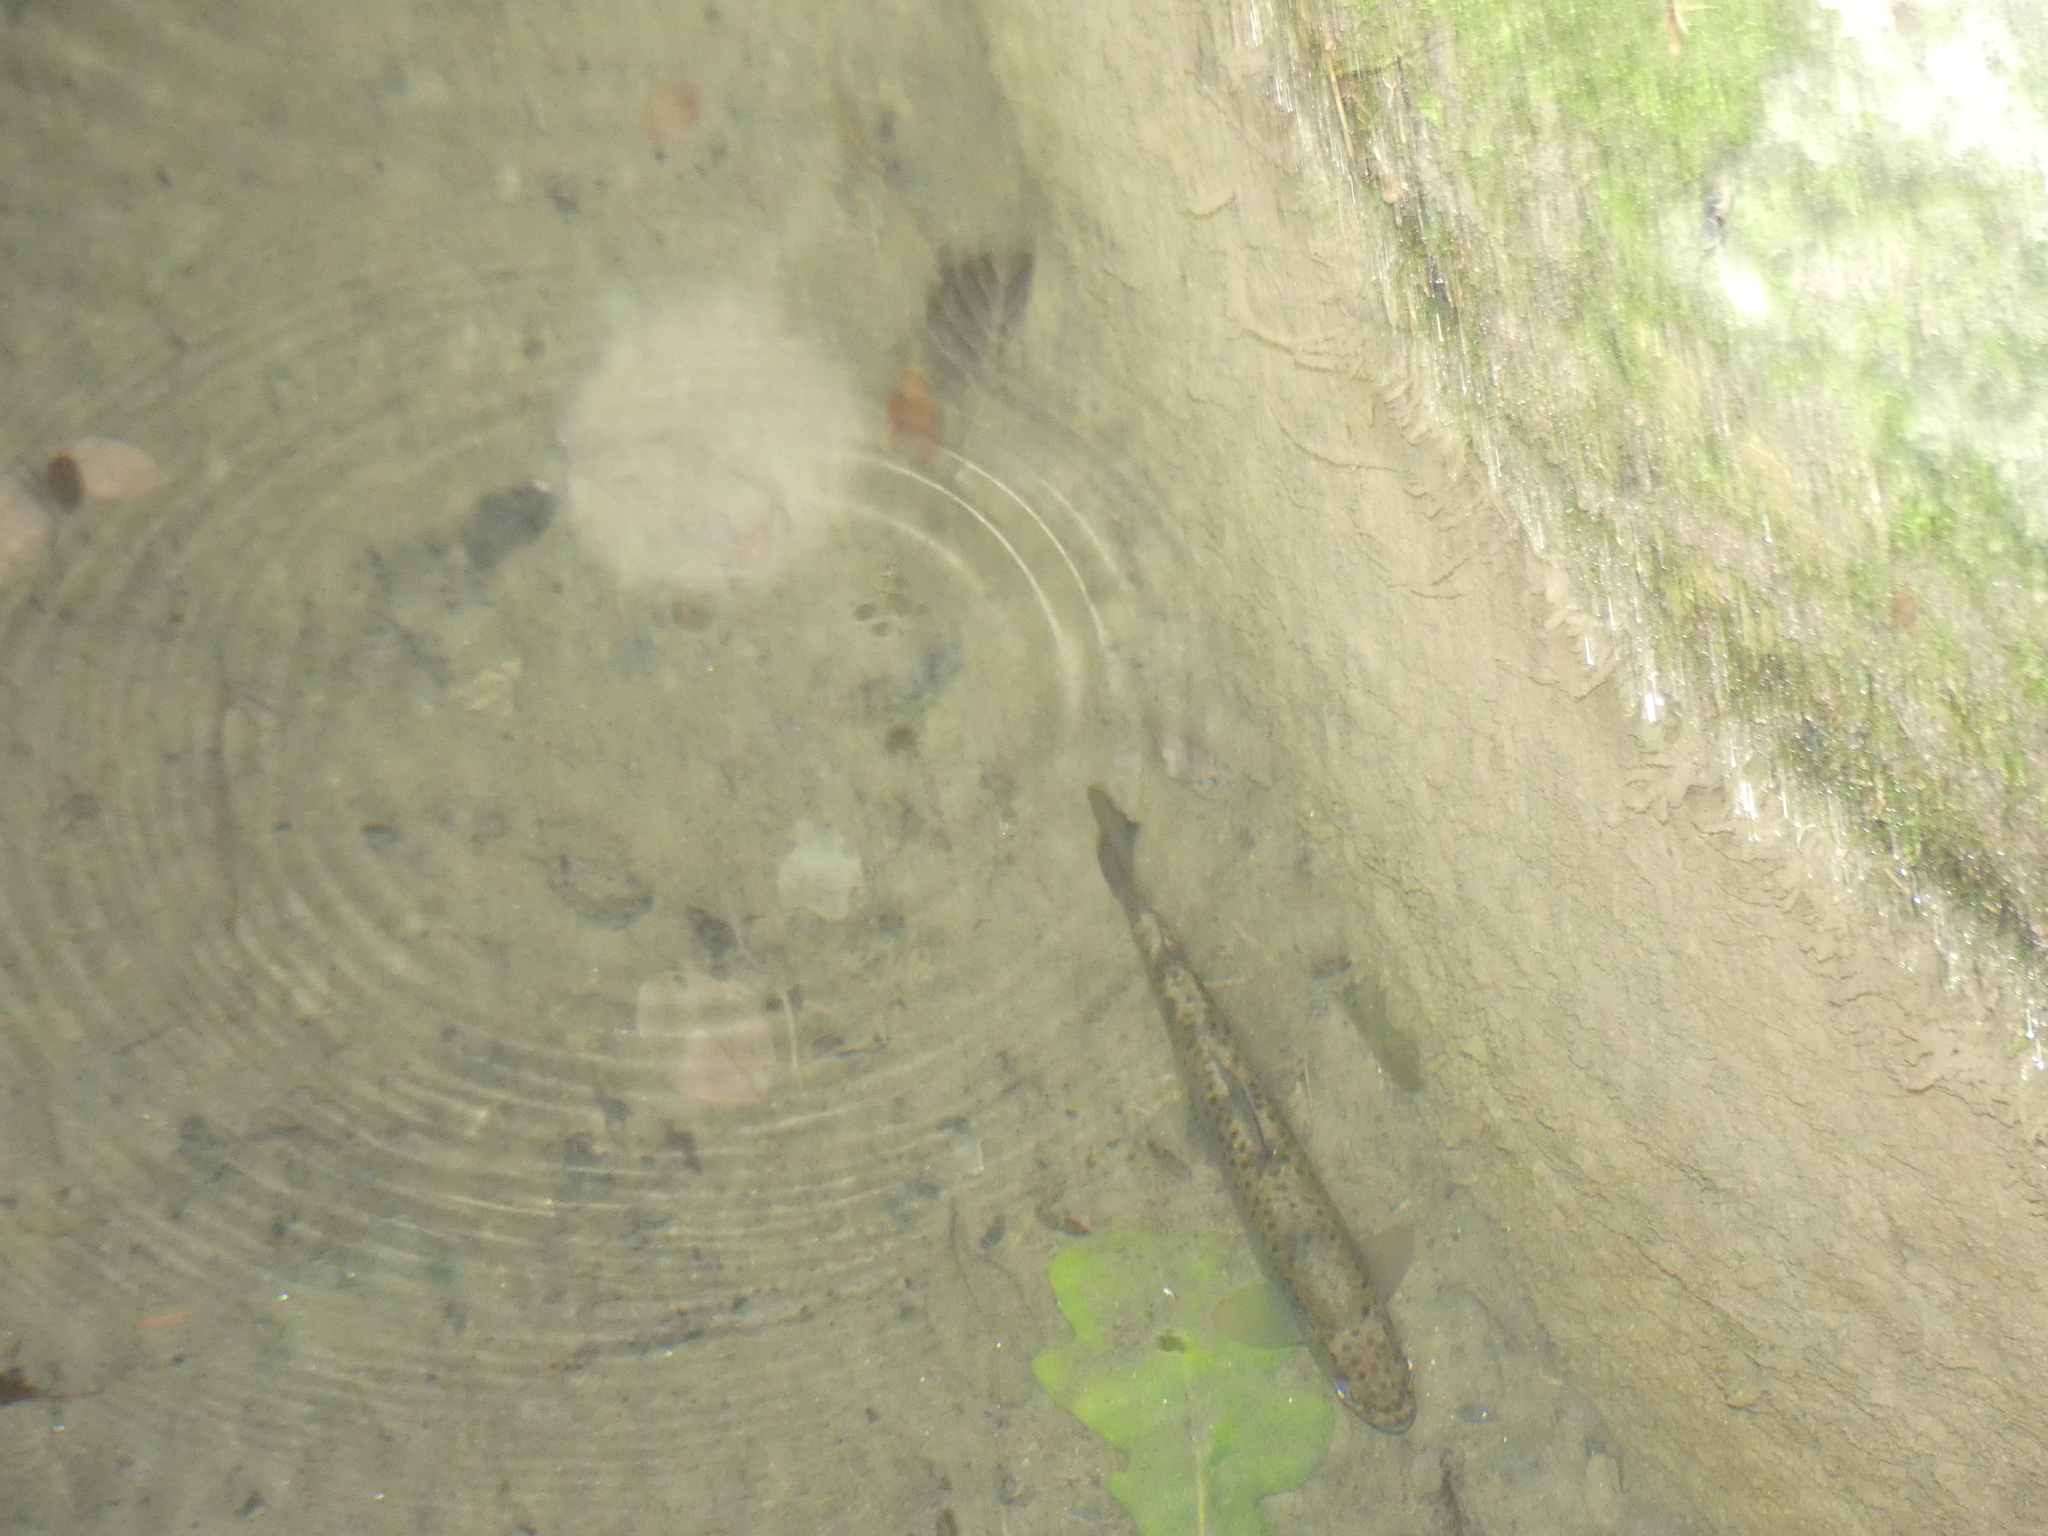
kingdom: Animalia
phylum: Chordata
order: Salmoniformes
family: Salmonidae
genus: Salmo
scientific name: Salmo trutta
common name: Brown trout
